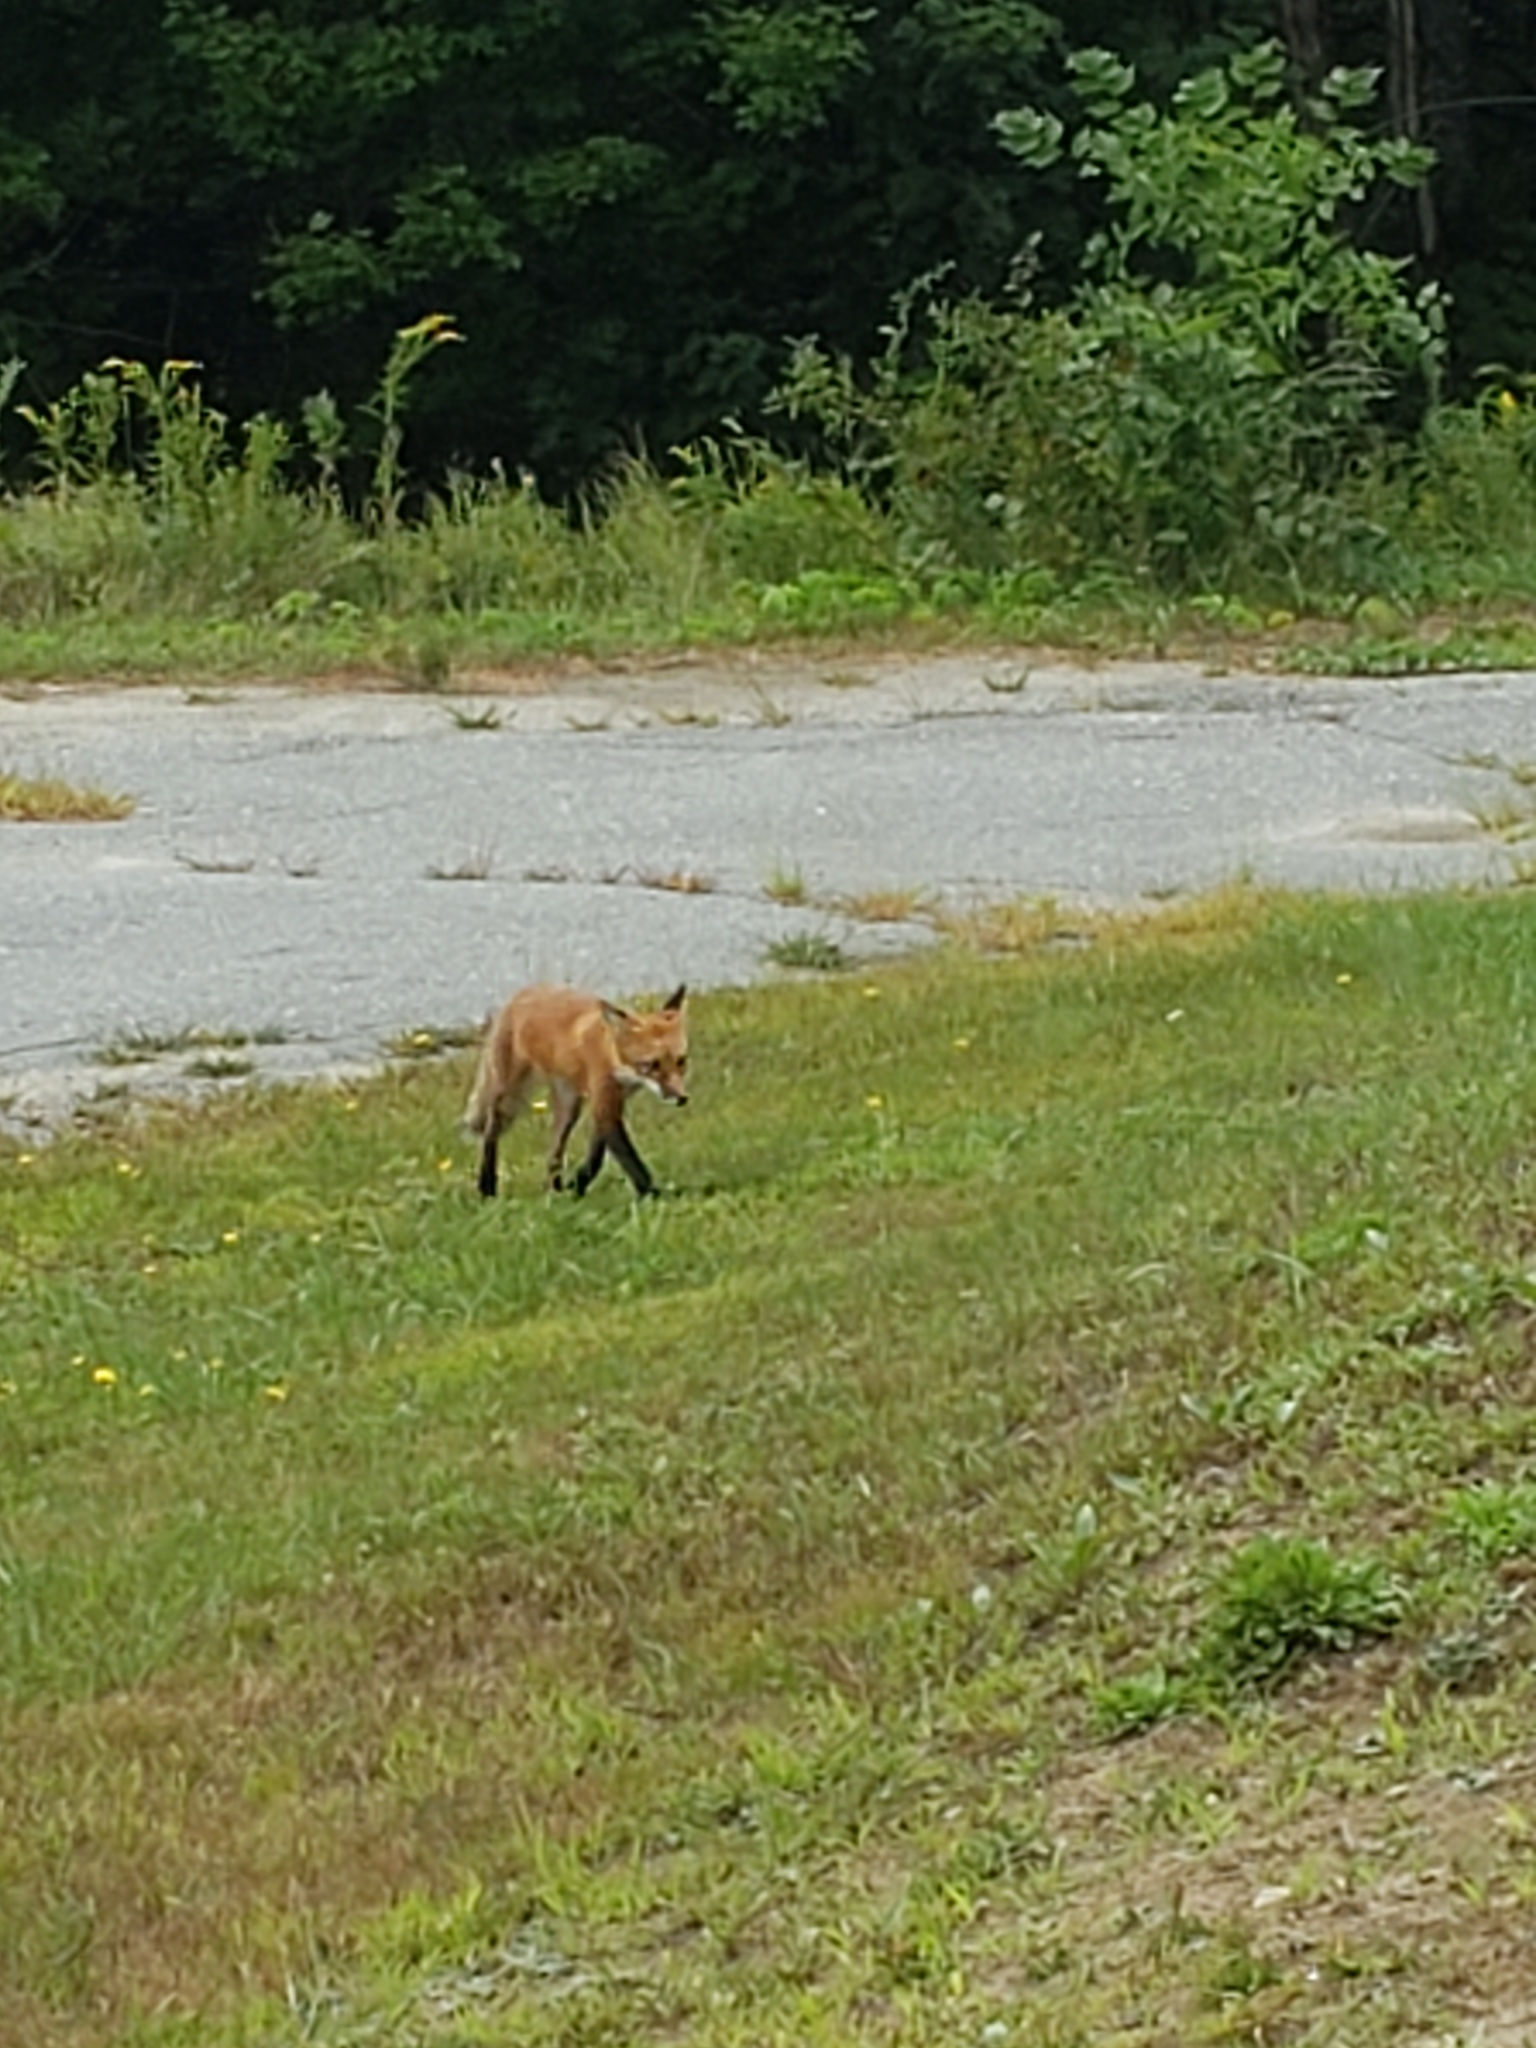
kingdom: Animalia
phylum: Chordata
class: Mammalia
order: Carnivora
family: Canidae
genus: Vulpes
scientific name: Vulpes vulpes
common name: Red fox
